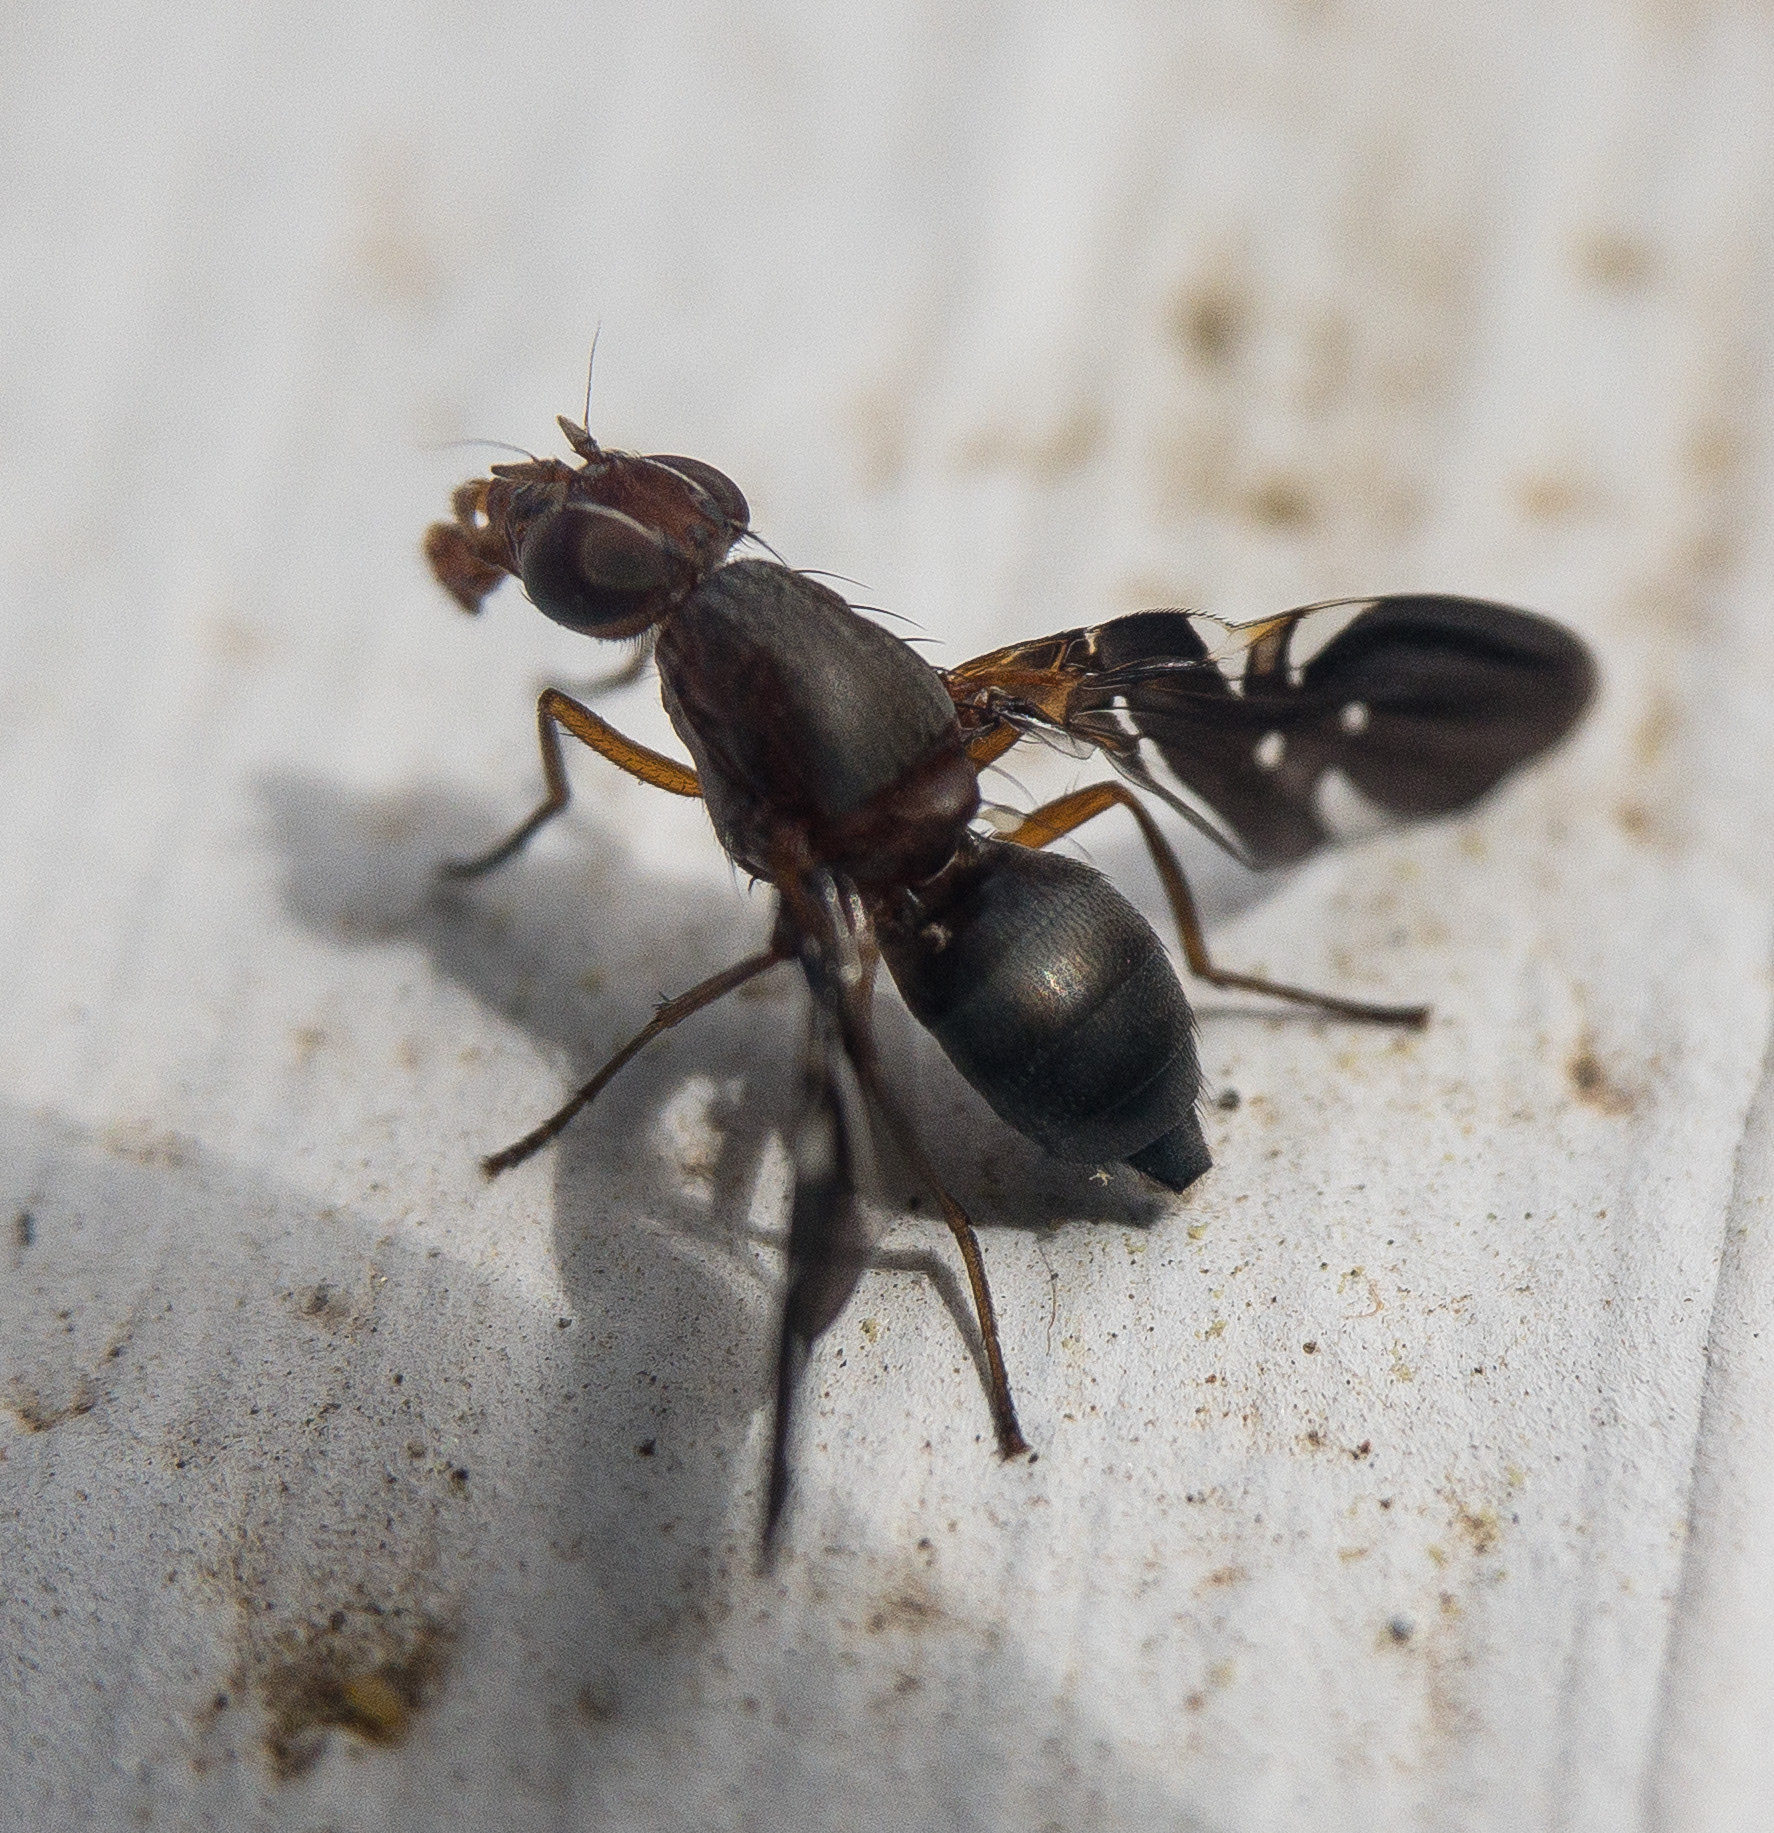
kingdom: Animalia
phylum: Arthropoda
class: Insecta
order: Diptera
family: Ulidiidae
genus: Delphinia
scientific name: Delphinia picta
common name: Common picture-winged fly
